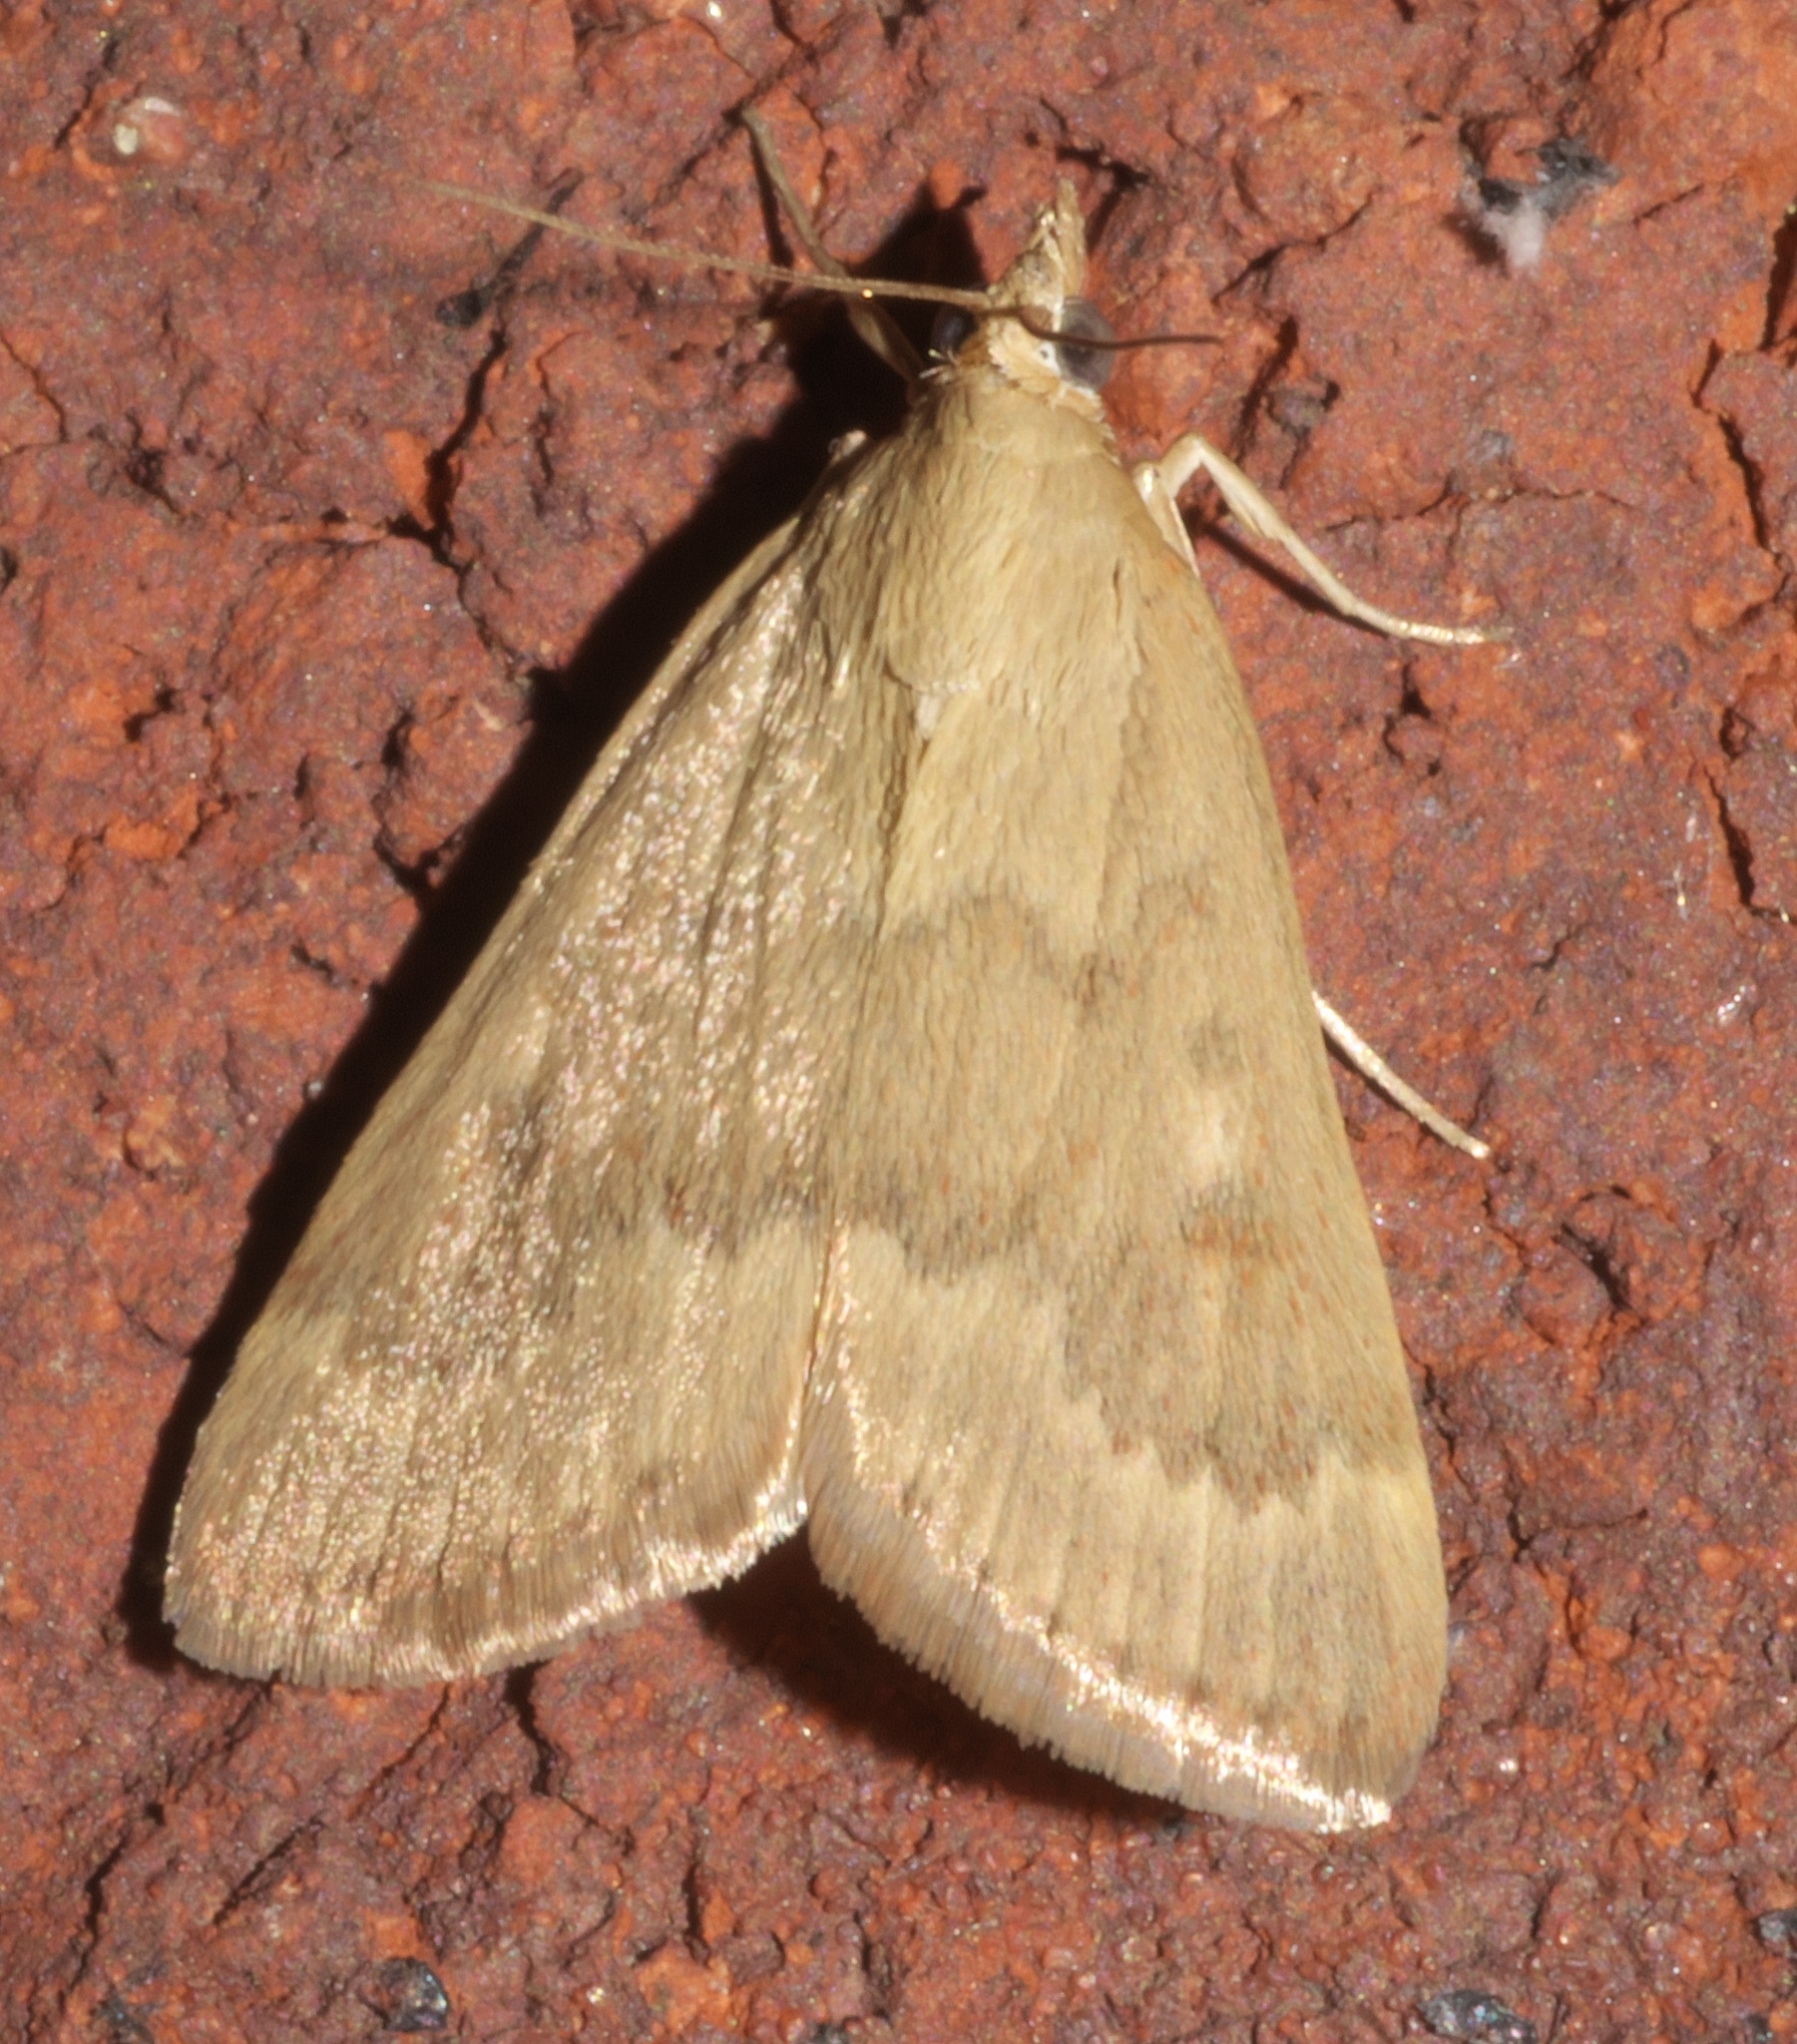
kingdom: Animalia
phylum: Arthropoda
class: Insecta
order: Lepidoptera
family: Crambidae
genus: Achyra
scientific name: Achyra rantalis
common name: Garden webworm
